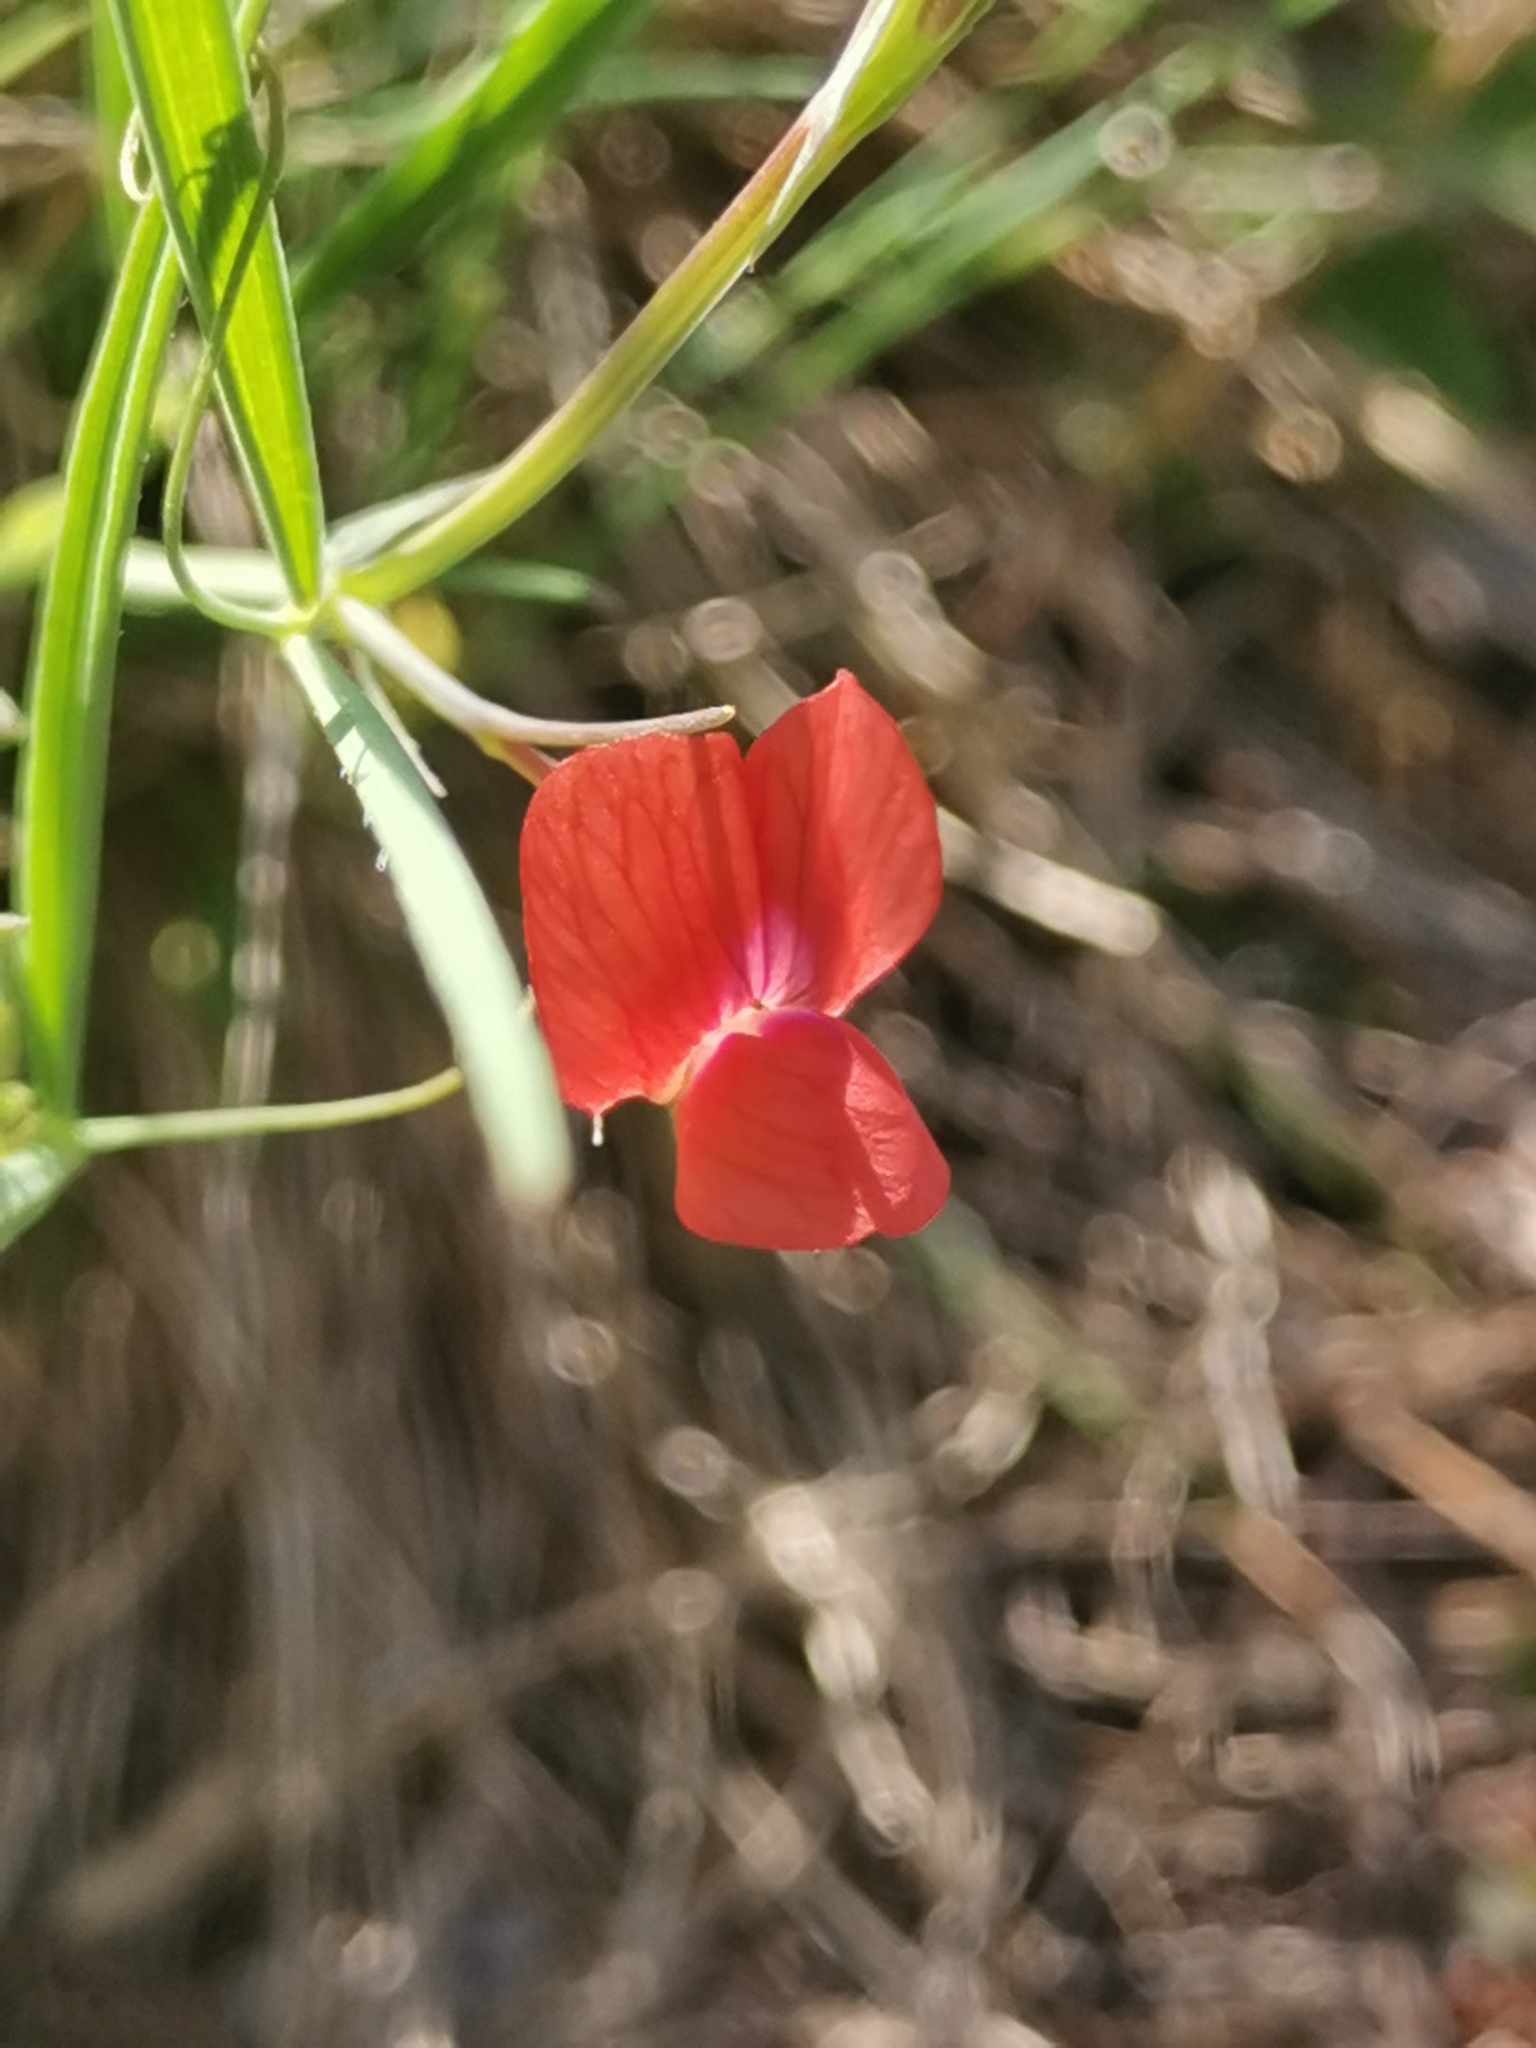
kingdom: Plantae
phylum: Tracheophyta
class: Magnoliopsida
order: Fabales
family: Fabaceae
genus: Lathyrus
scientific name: Lathyrus setifolius
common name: Brown vetchling
